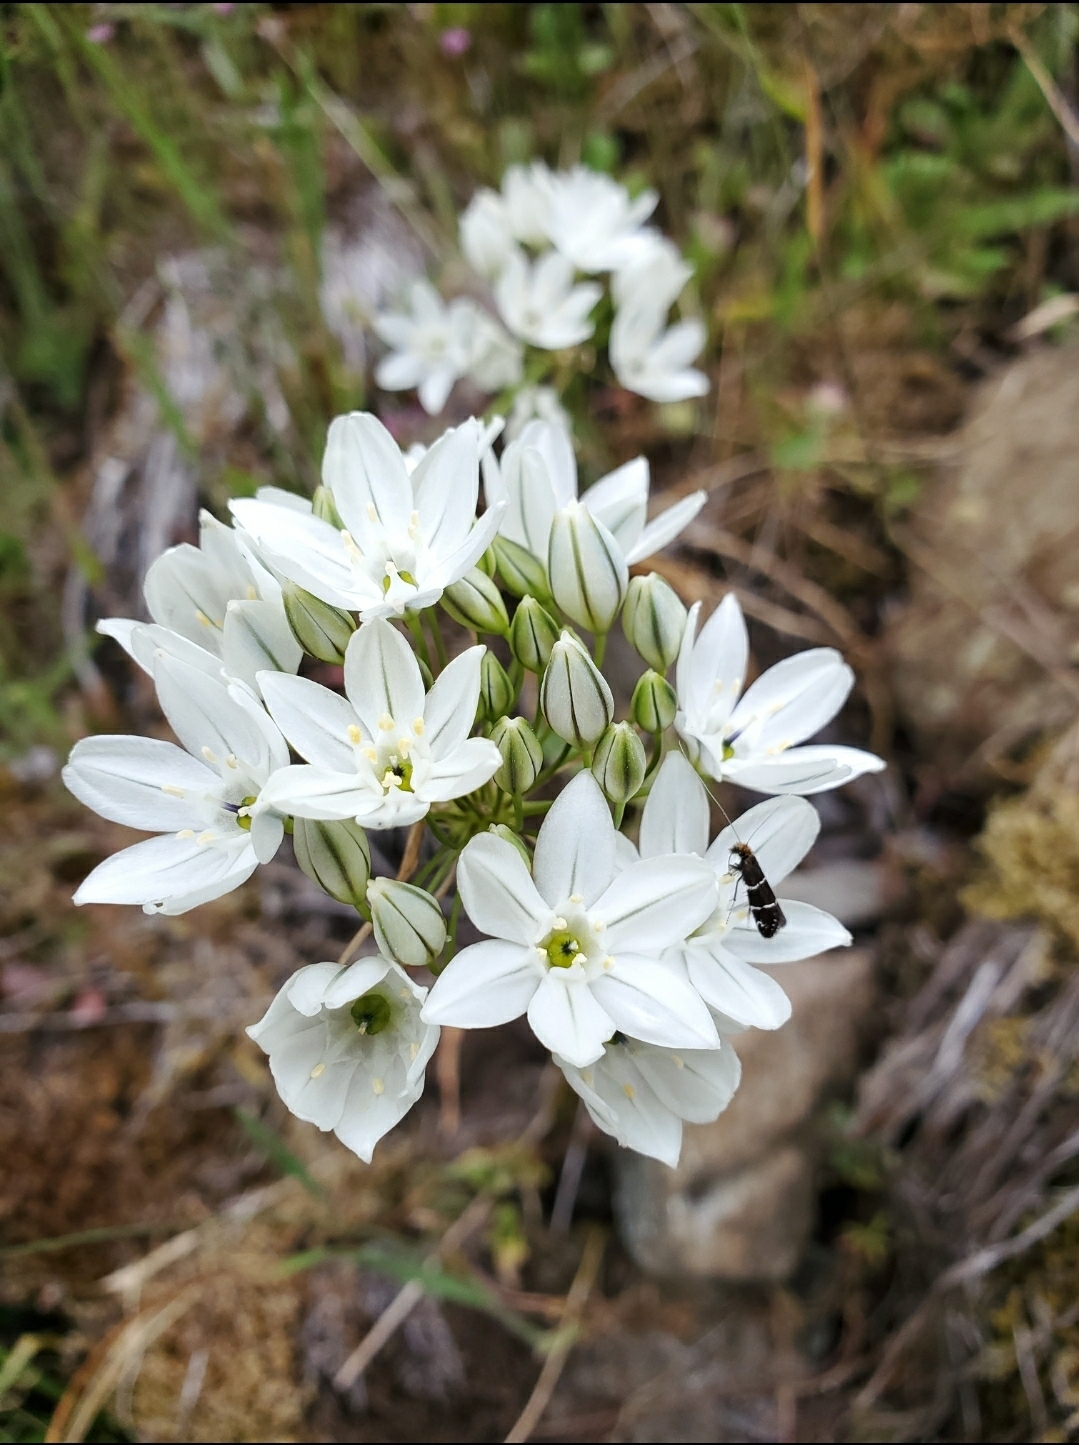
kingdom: Plantae
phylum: Tracheophyta
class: Liliopsida
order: Asparagales
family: Asparagaceae
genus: Triteleia
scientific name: Triteleia hyacinthina
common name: White brodiaea
